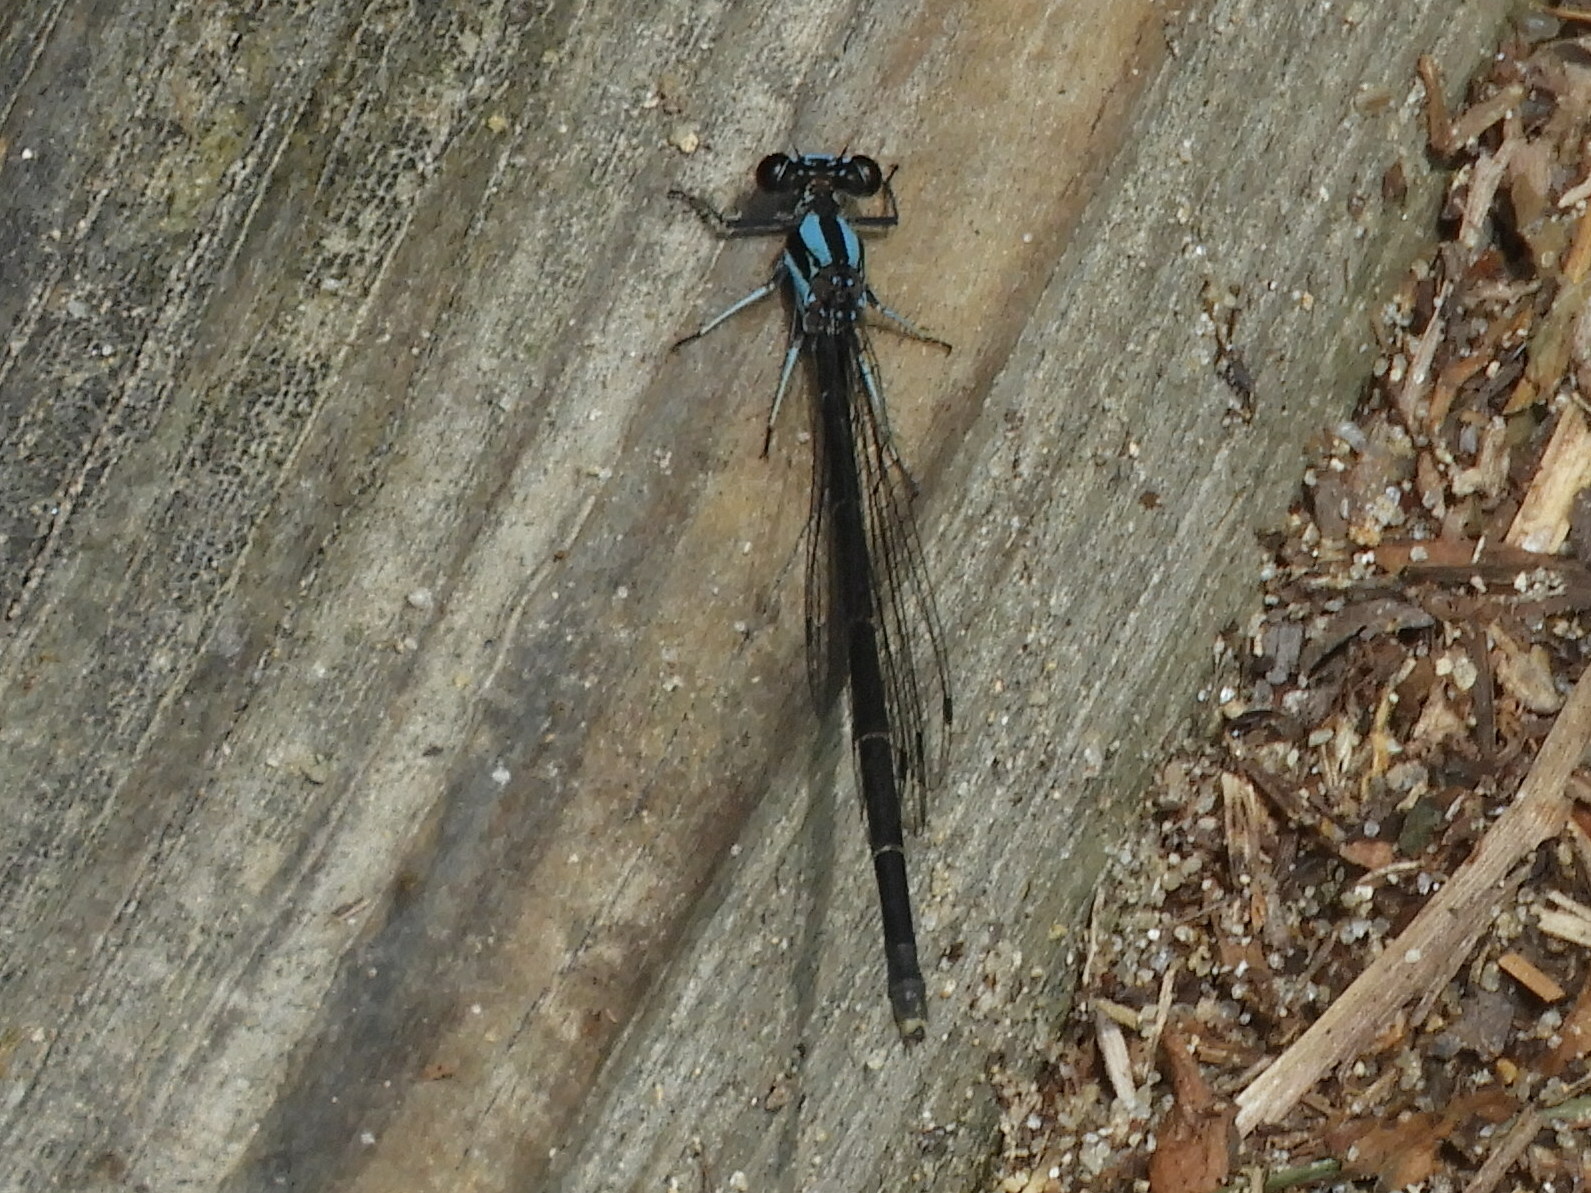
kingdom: Animalia
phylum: Arthropoda
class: Insecta
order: Odonata
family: Coenagrionidae
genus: Argia
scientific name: Argia tibialis
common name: Blue-tipped dancer
